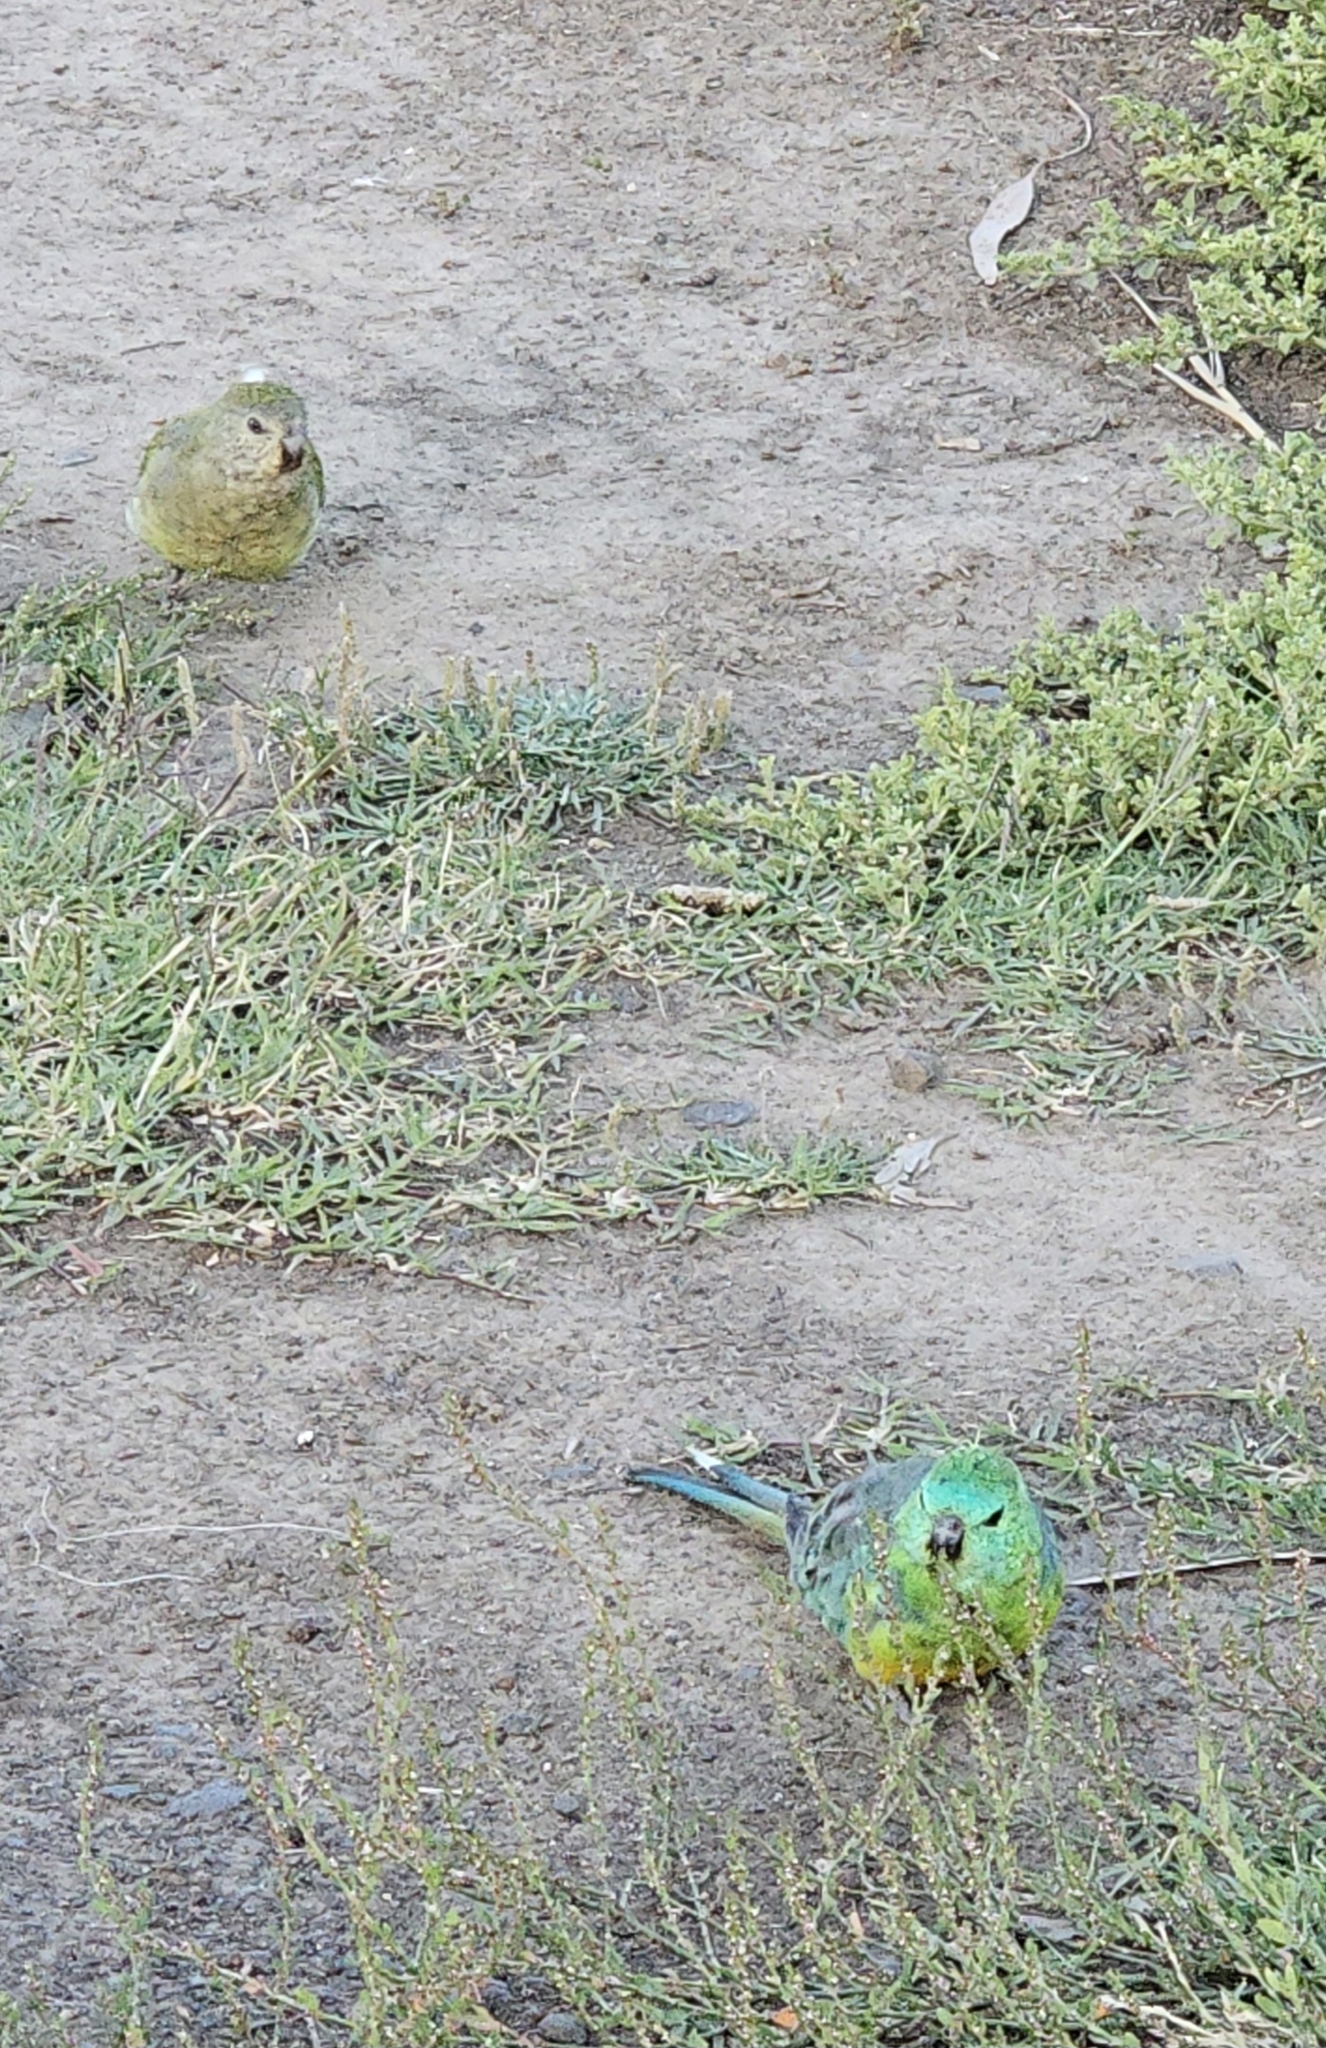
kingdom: Animalia
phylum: Chordata
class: Aves
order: Psittaciformes
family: Psittacidae
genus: Psephotus
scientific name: Psephotus haematonotus
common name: Red-rumped parrot
